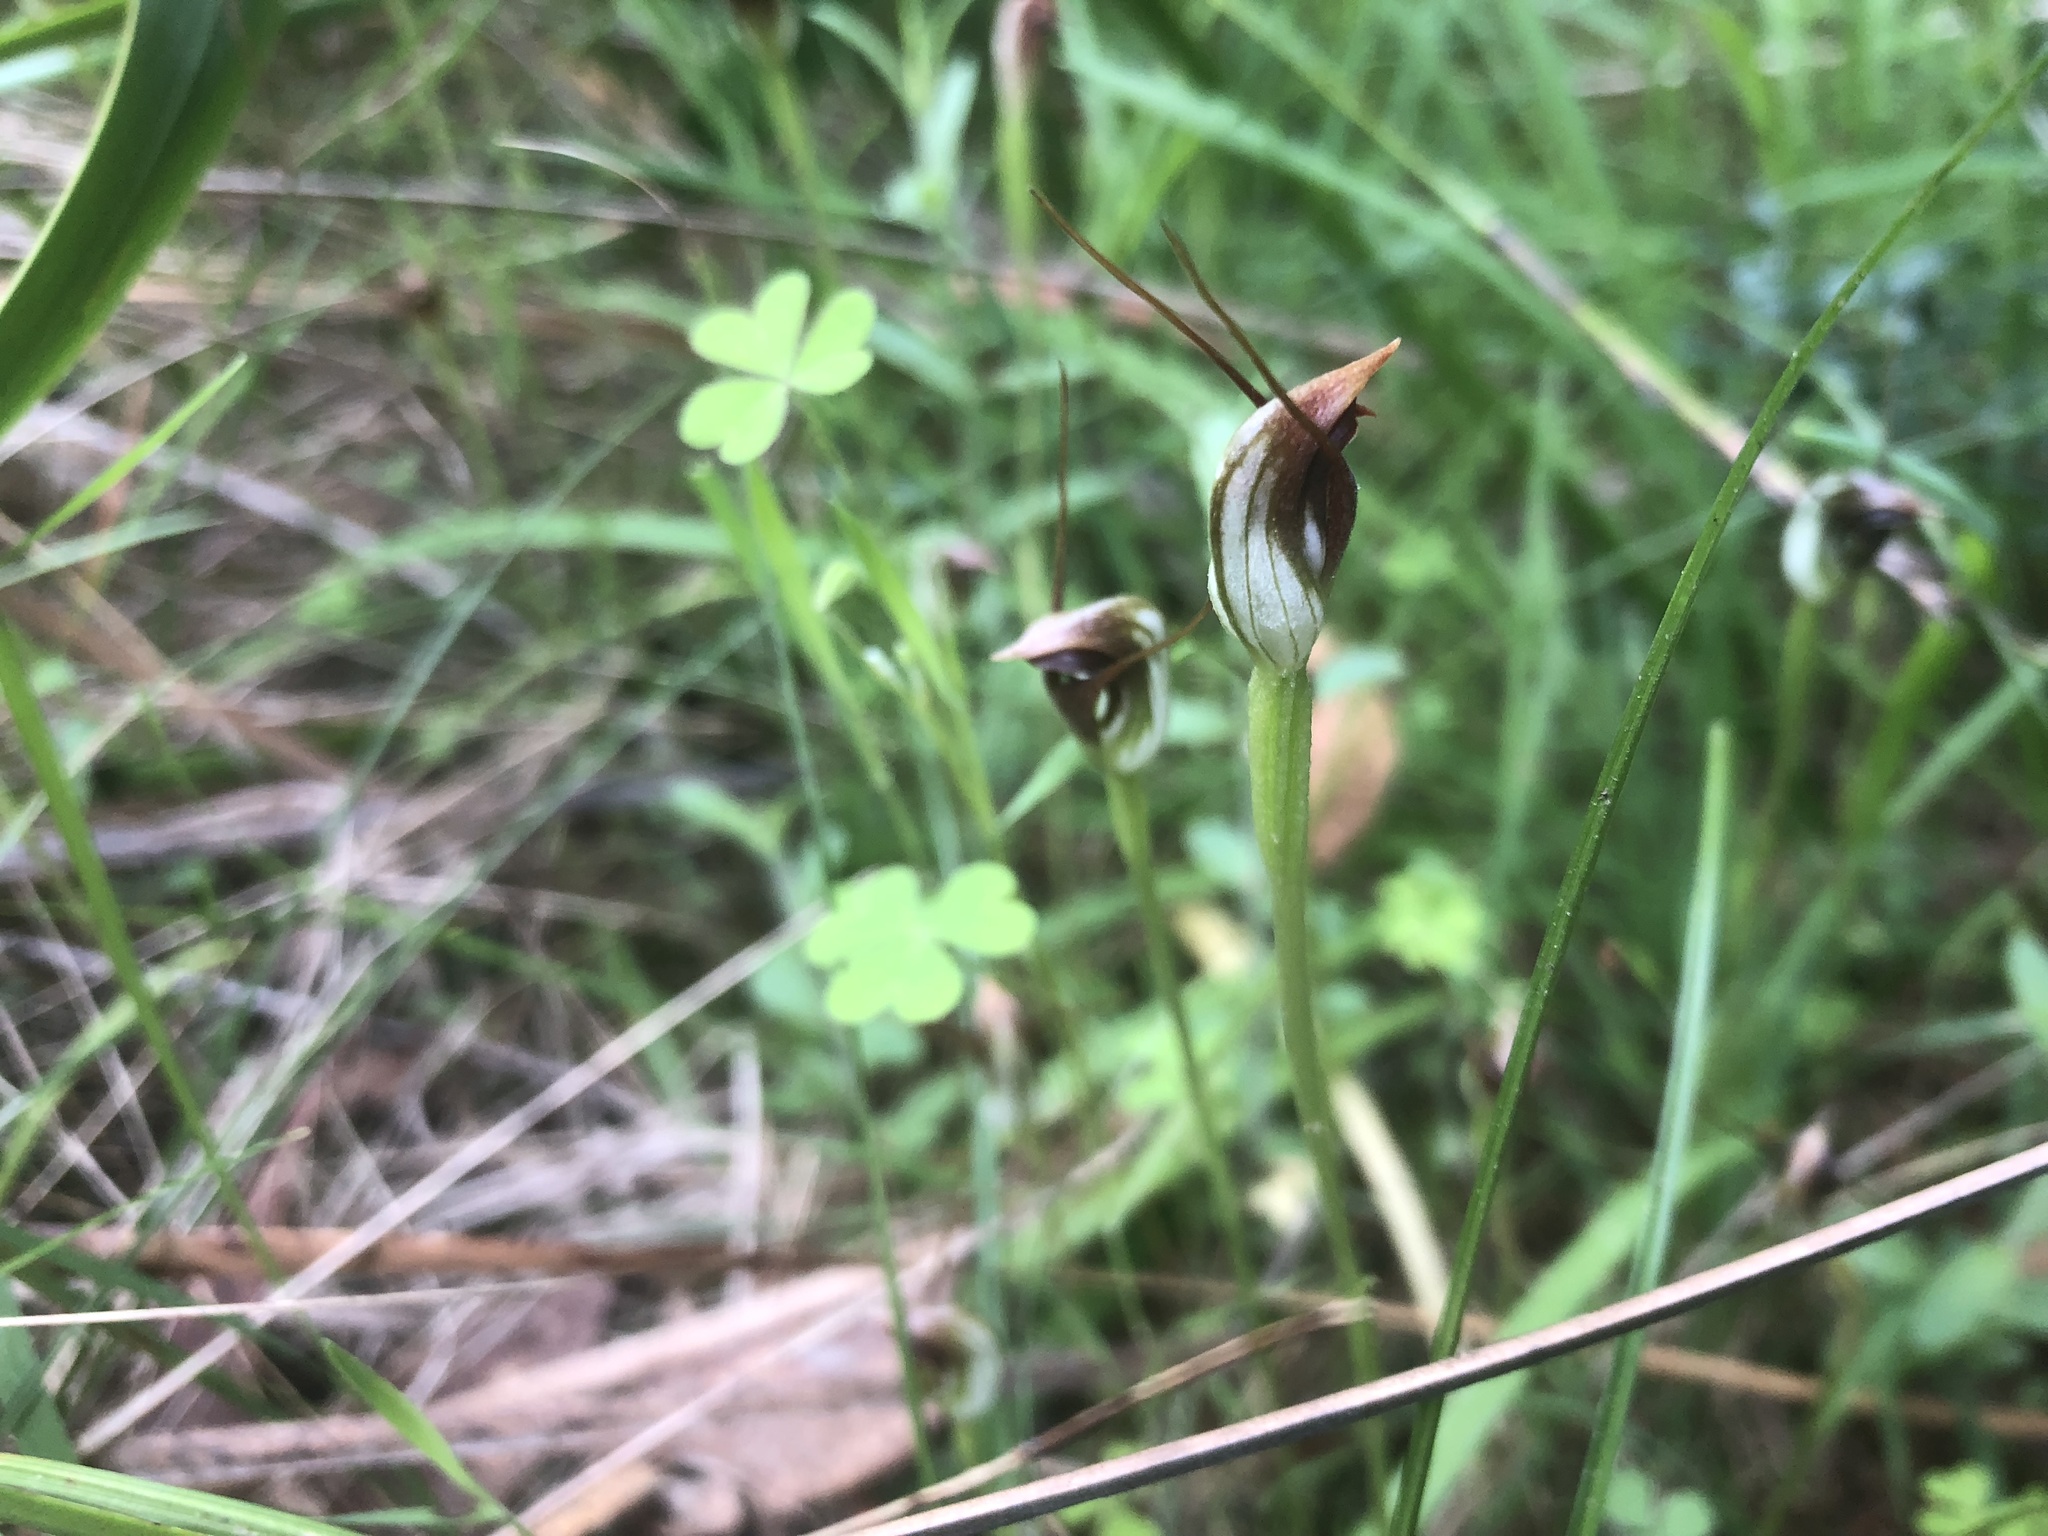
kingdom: Plantae
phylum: Tracheophyta
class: Liliopsida
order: Asparagales
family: Orchidaceae
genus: Pterostylis
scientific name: Pterostylis pedunculata
